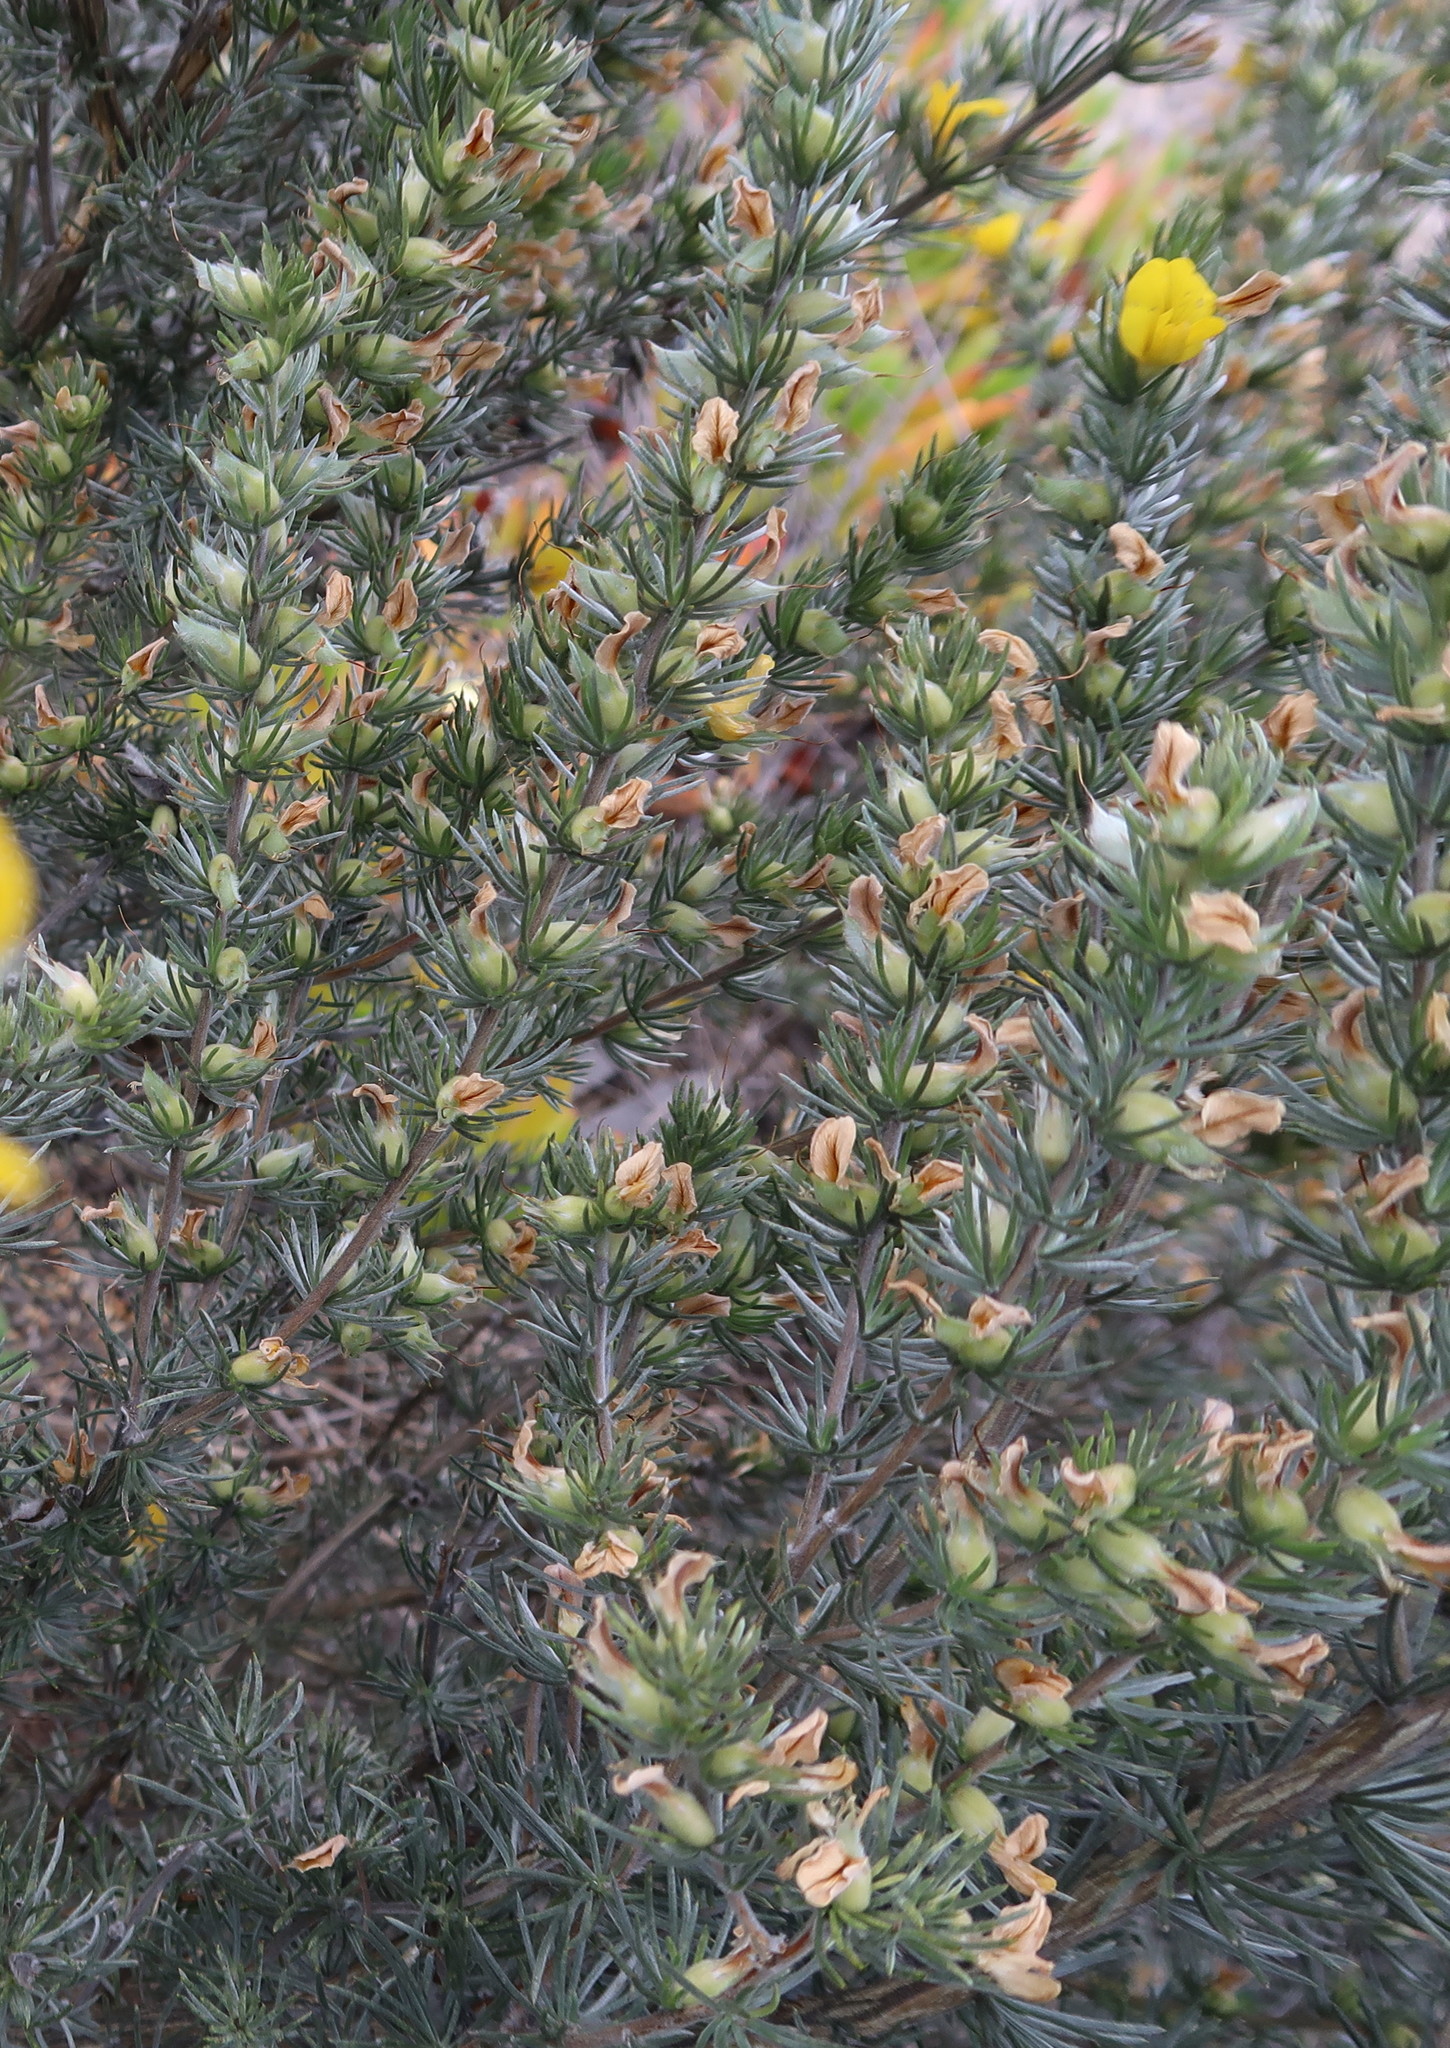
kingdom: Plantae
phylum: Tracheophyta
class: Magnoliopsida
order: Fabales
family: Fabaceae
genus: Aspalathus
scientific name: Aspalathus glabrescens
